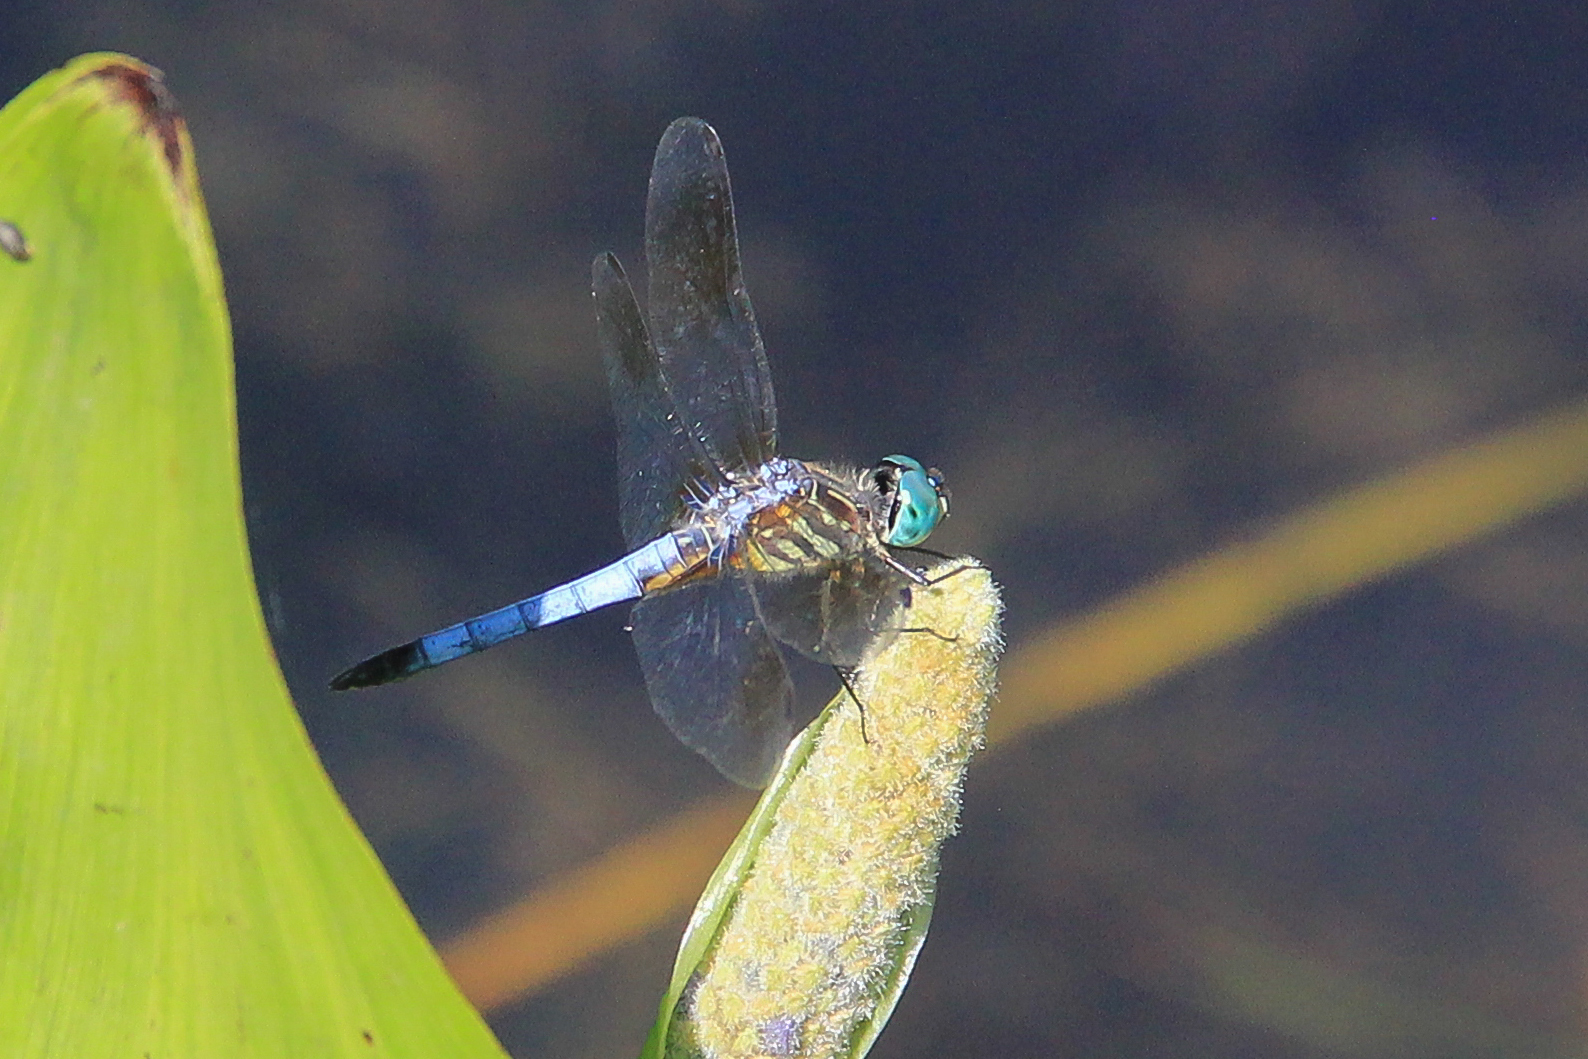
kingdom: Animalia
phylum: Arthropoda
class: Insecta
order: Odonata
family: Libellulidae
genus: Pachydiplax
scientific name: Pachydiplax longipennis
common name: Blue dasher
